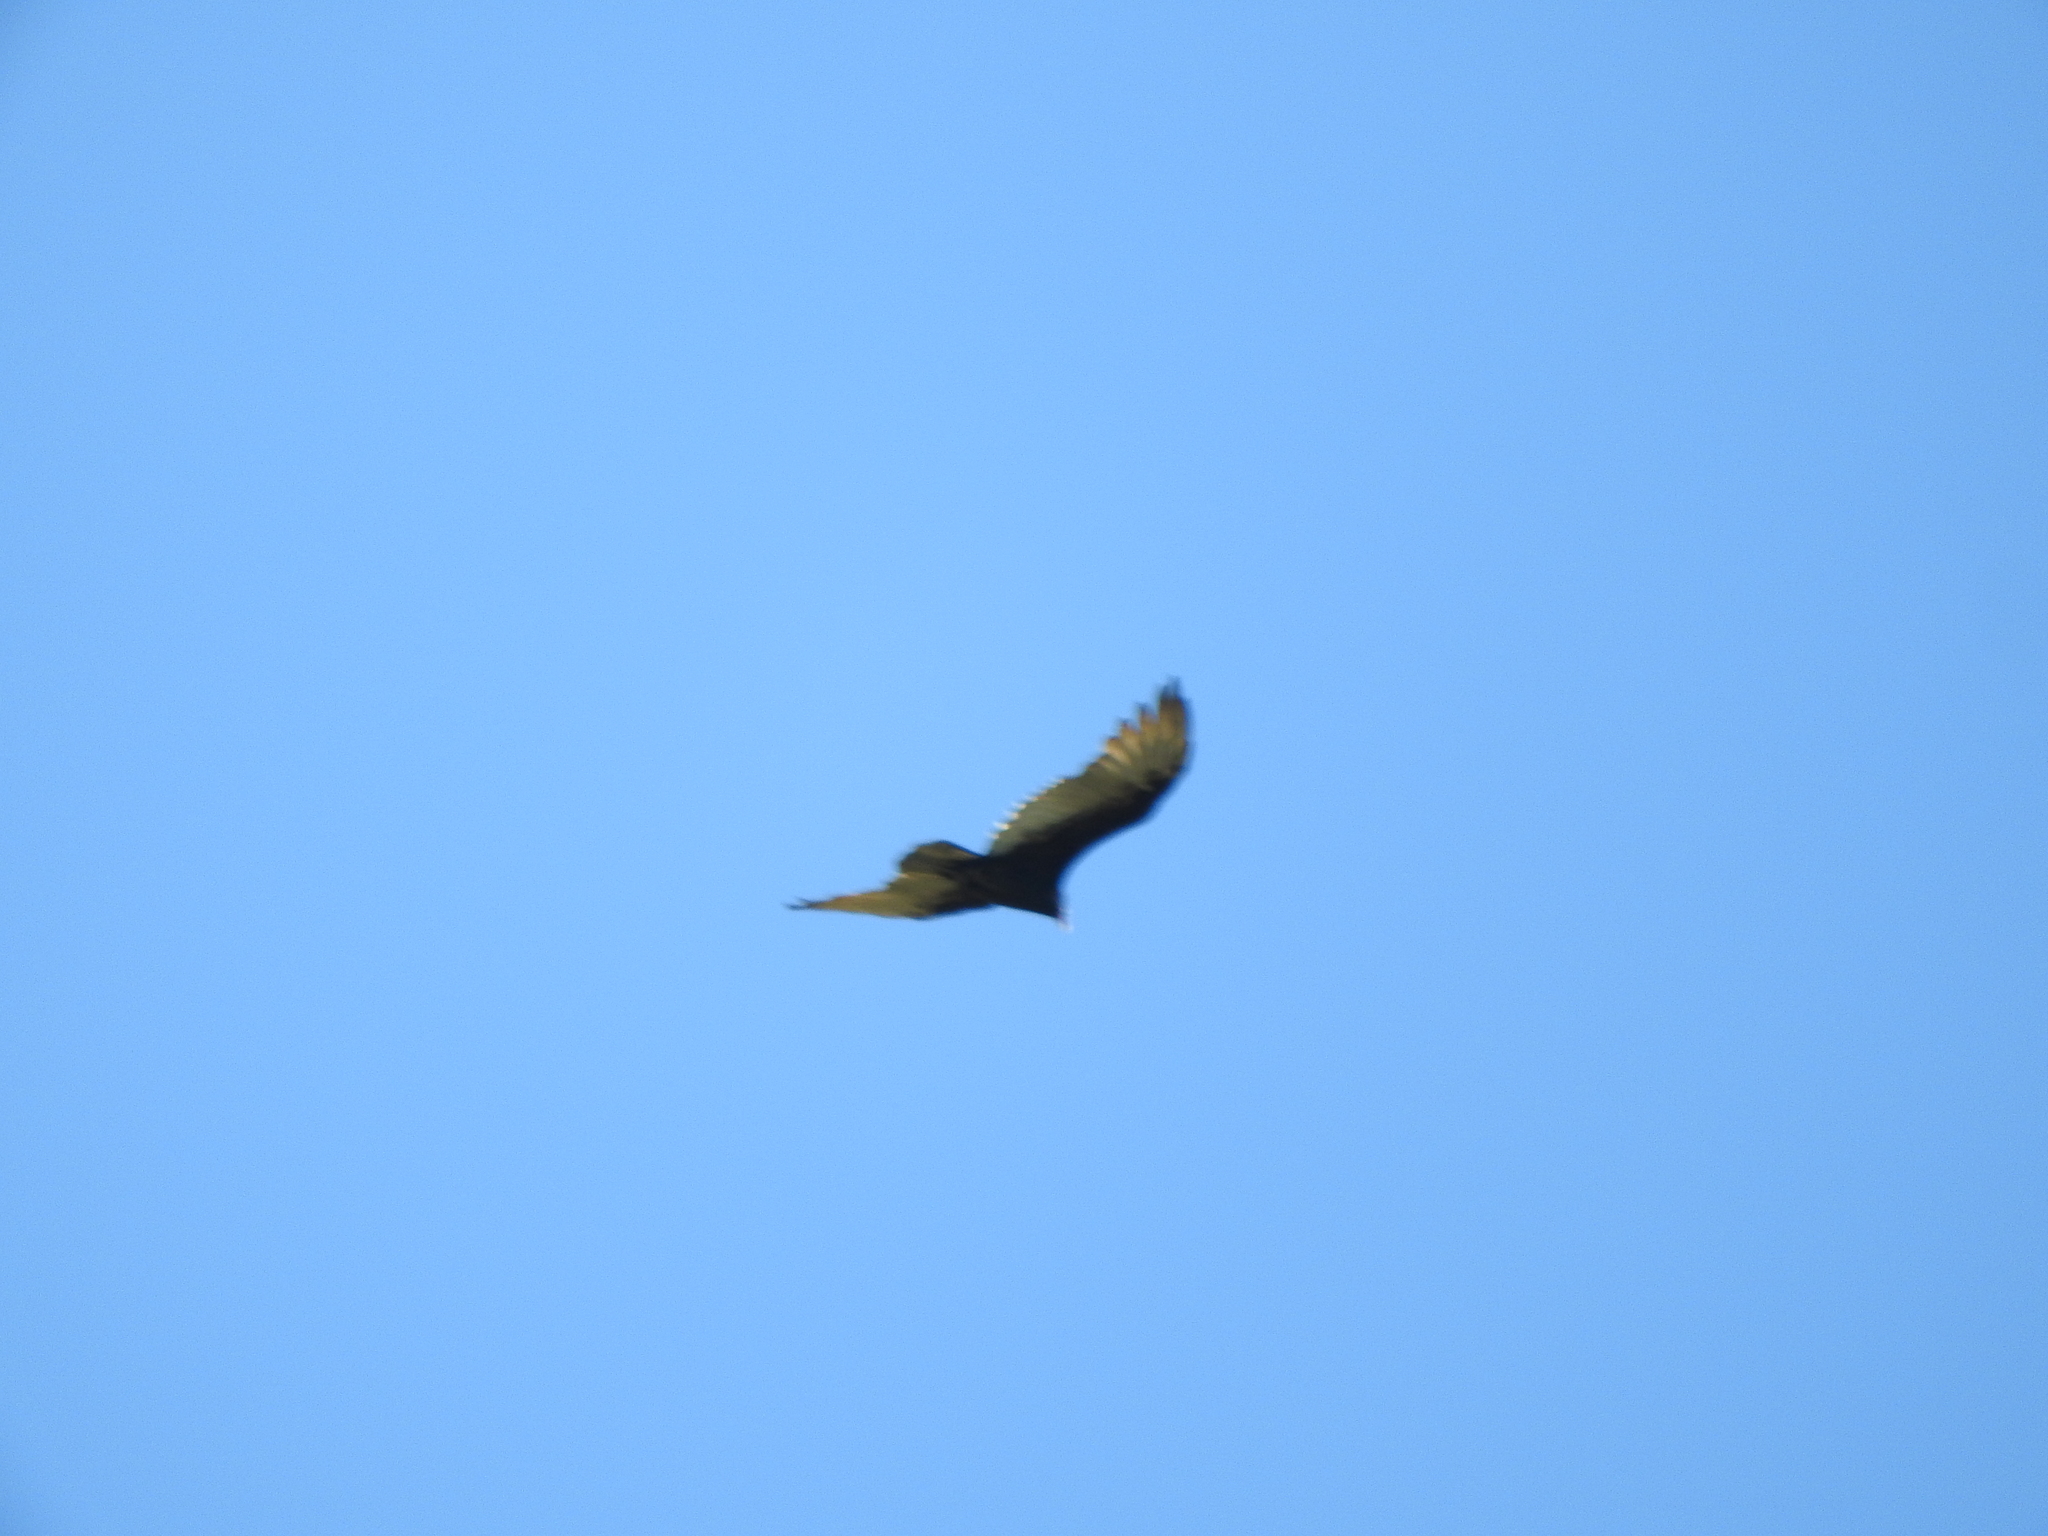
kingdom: Animalia
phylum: Chordata
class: Aves
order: Accipitriformes
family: Cathartidae
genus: Cathartes
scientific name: Cathartes aura
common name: Turkey vulture
